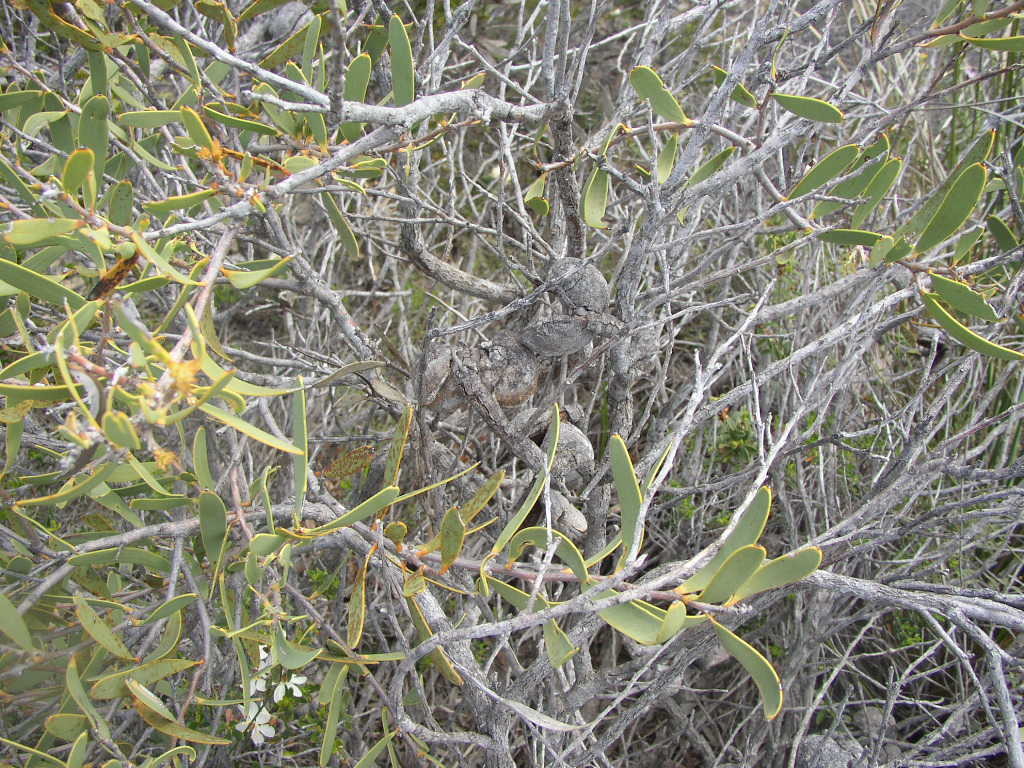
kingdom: Plantae
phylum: Tracheophyta
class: Magnoliopsida
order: Proteales
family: Proteaceae
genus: Hakea
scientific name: Hakea incrassata
